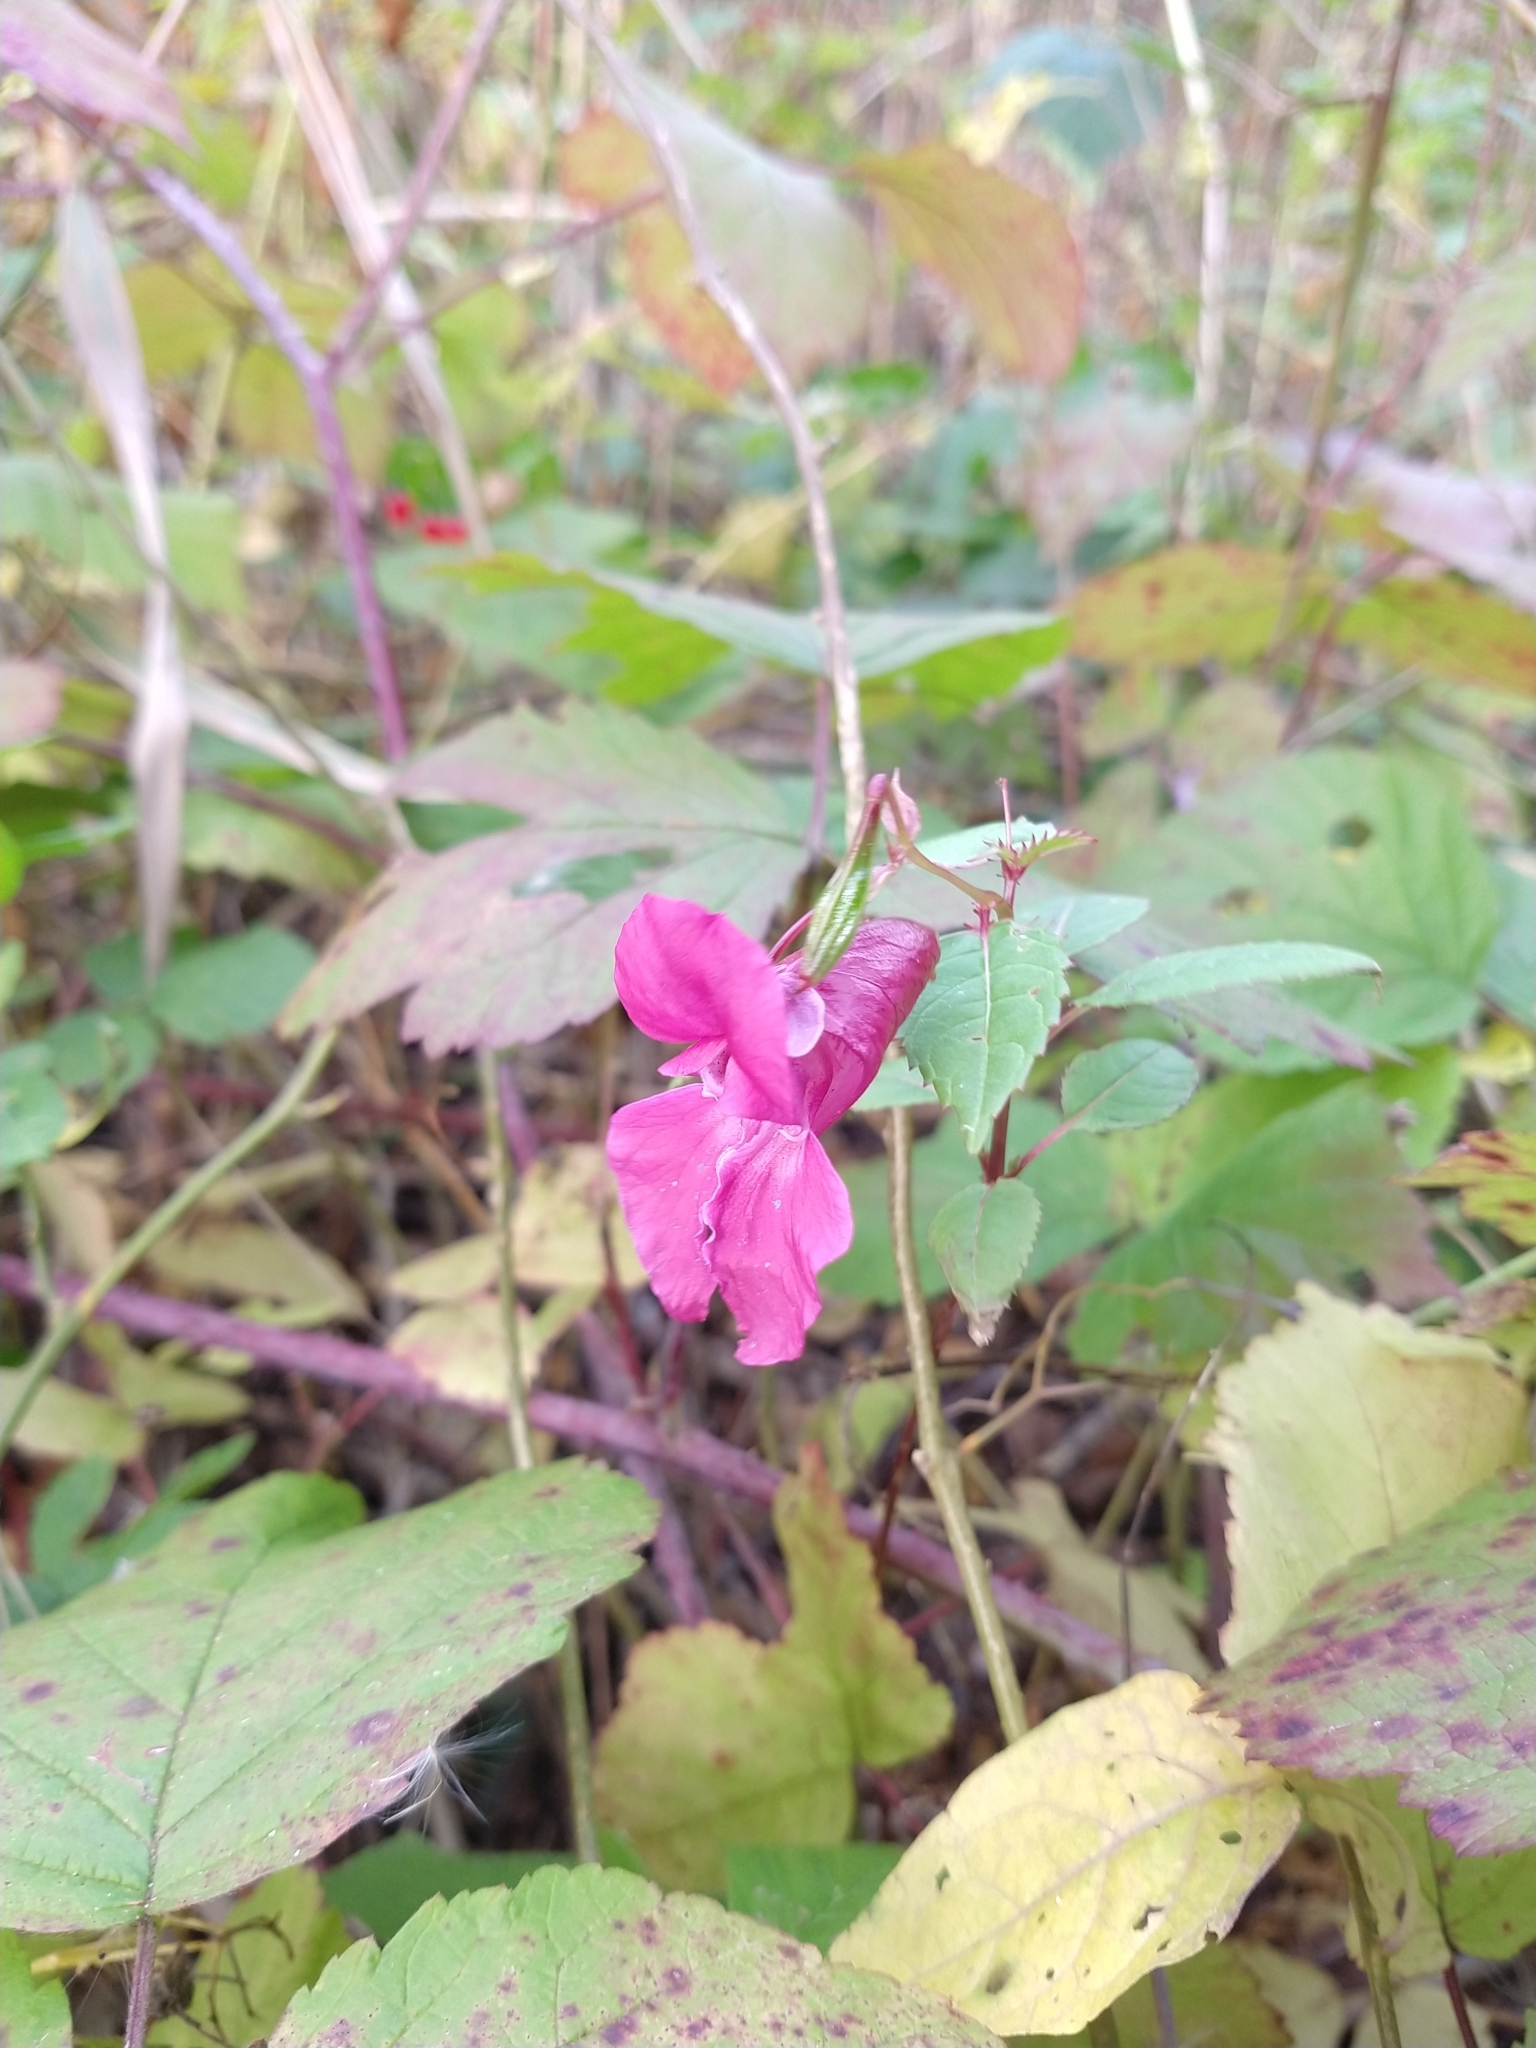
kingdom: Plantae
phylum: Tracheophyta
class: Magnoliopsida
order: Ericales
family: Balsaminaceae
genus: Impatiens
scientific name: Impatiens glandulifera
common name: Himalayan balsam
